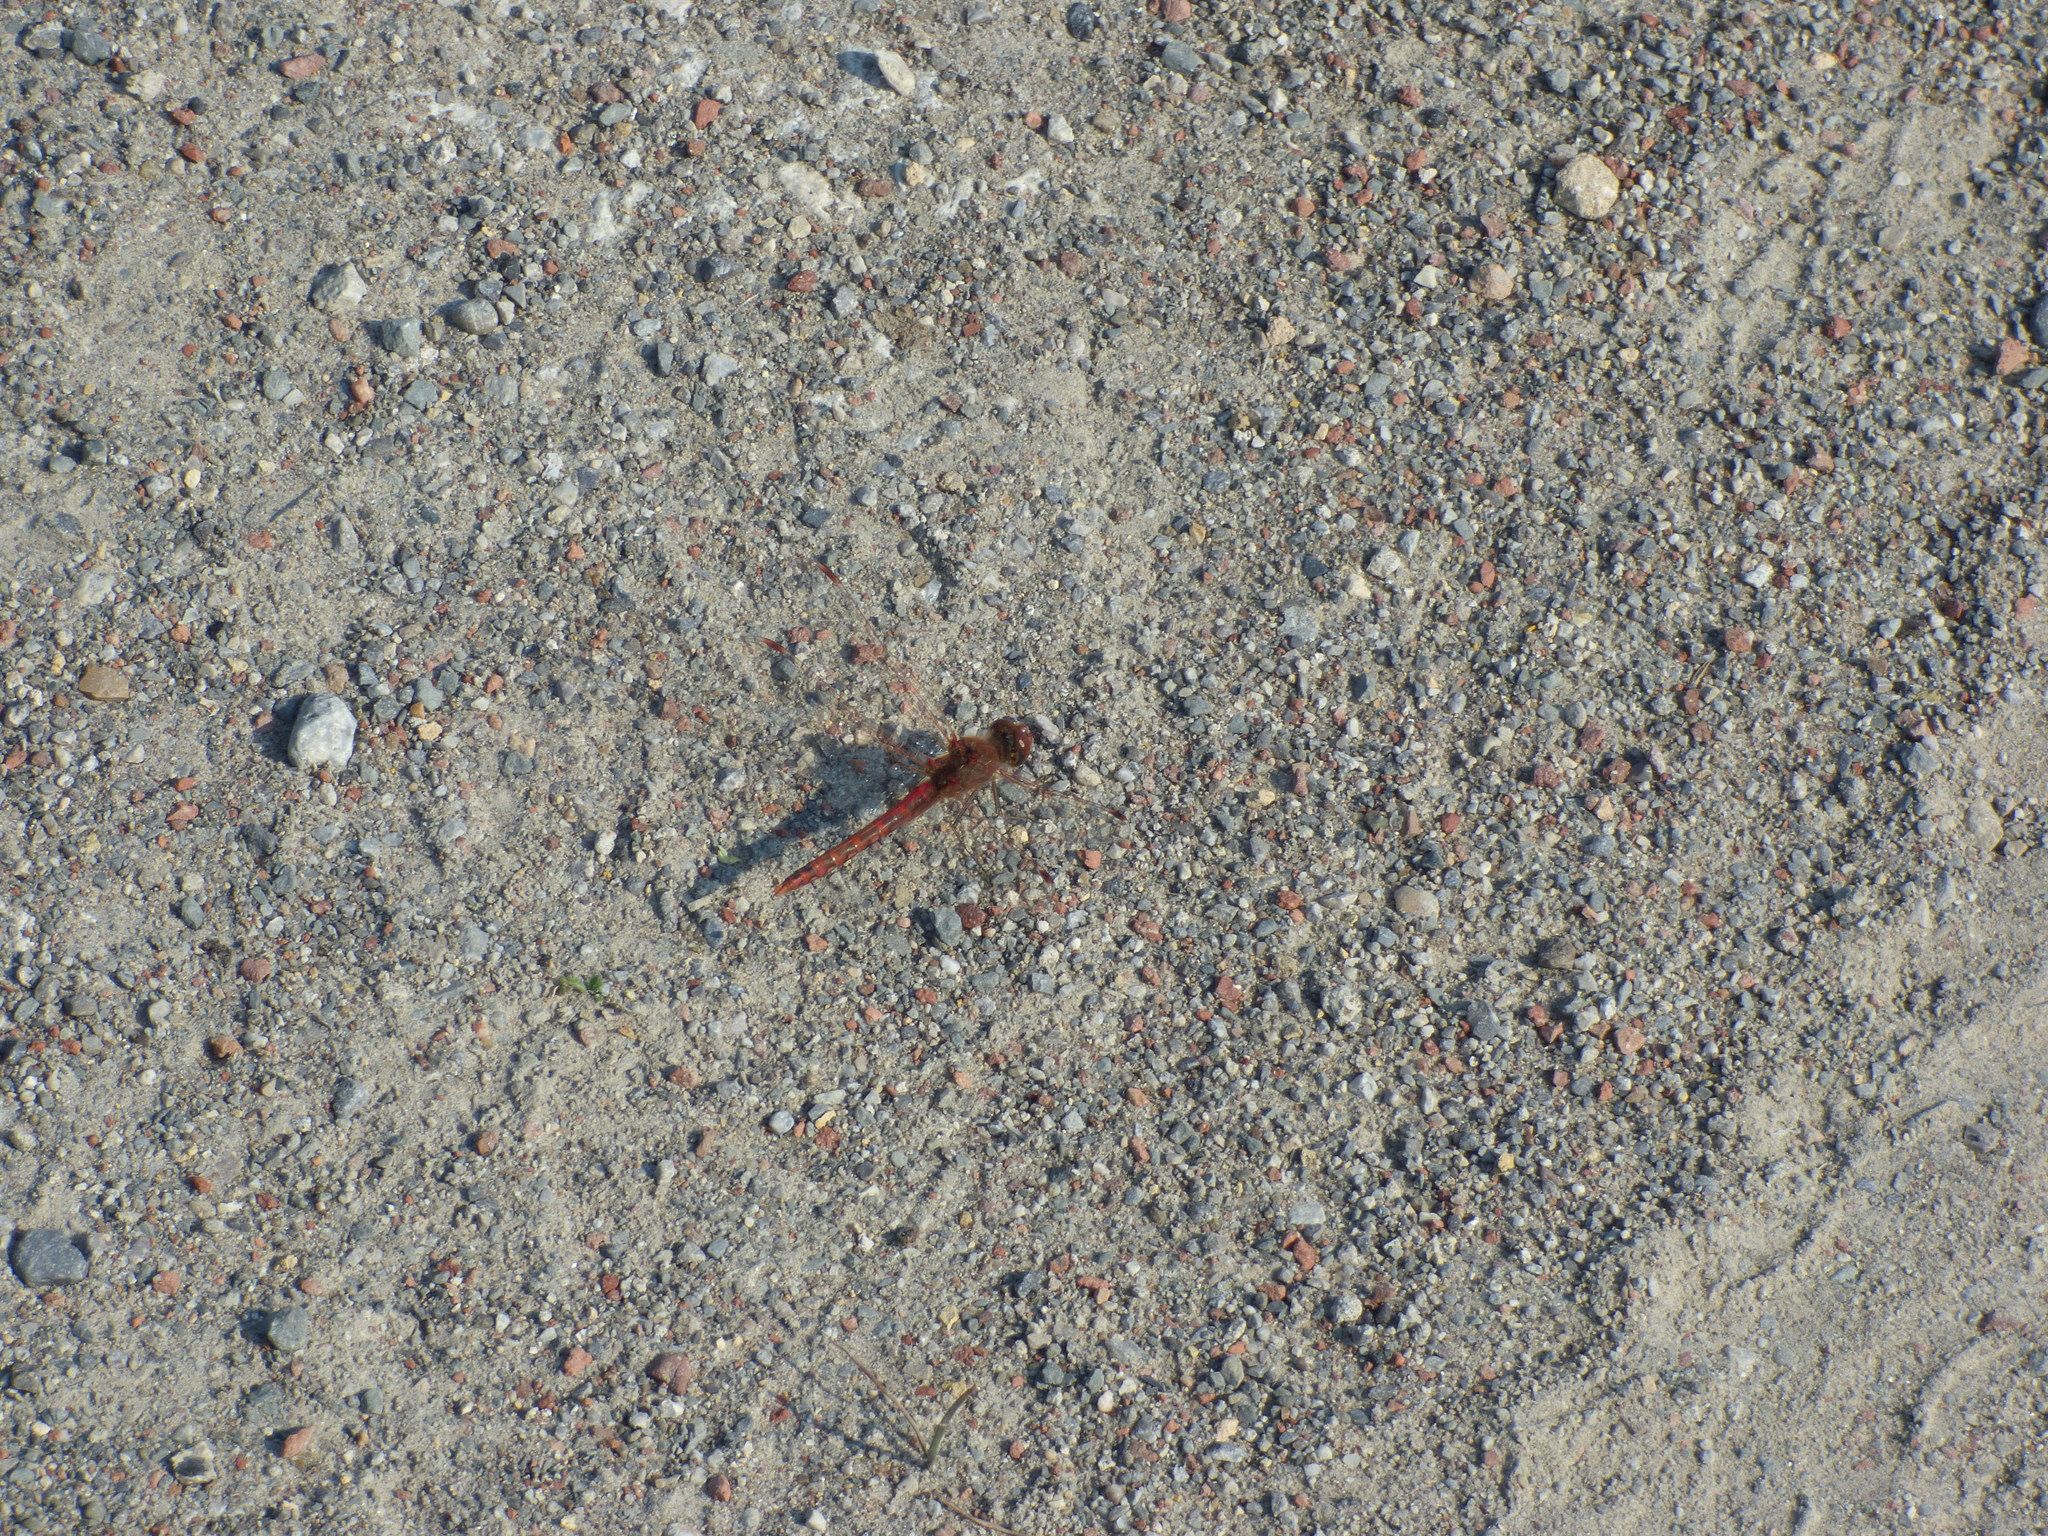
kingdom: Animalia
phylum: Arthropoda
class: Insecta
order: Odonata
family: Libellulidae
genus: Sympetrum
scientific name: Sympetrum corruptum
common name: Variegated meadowhawk
